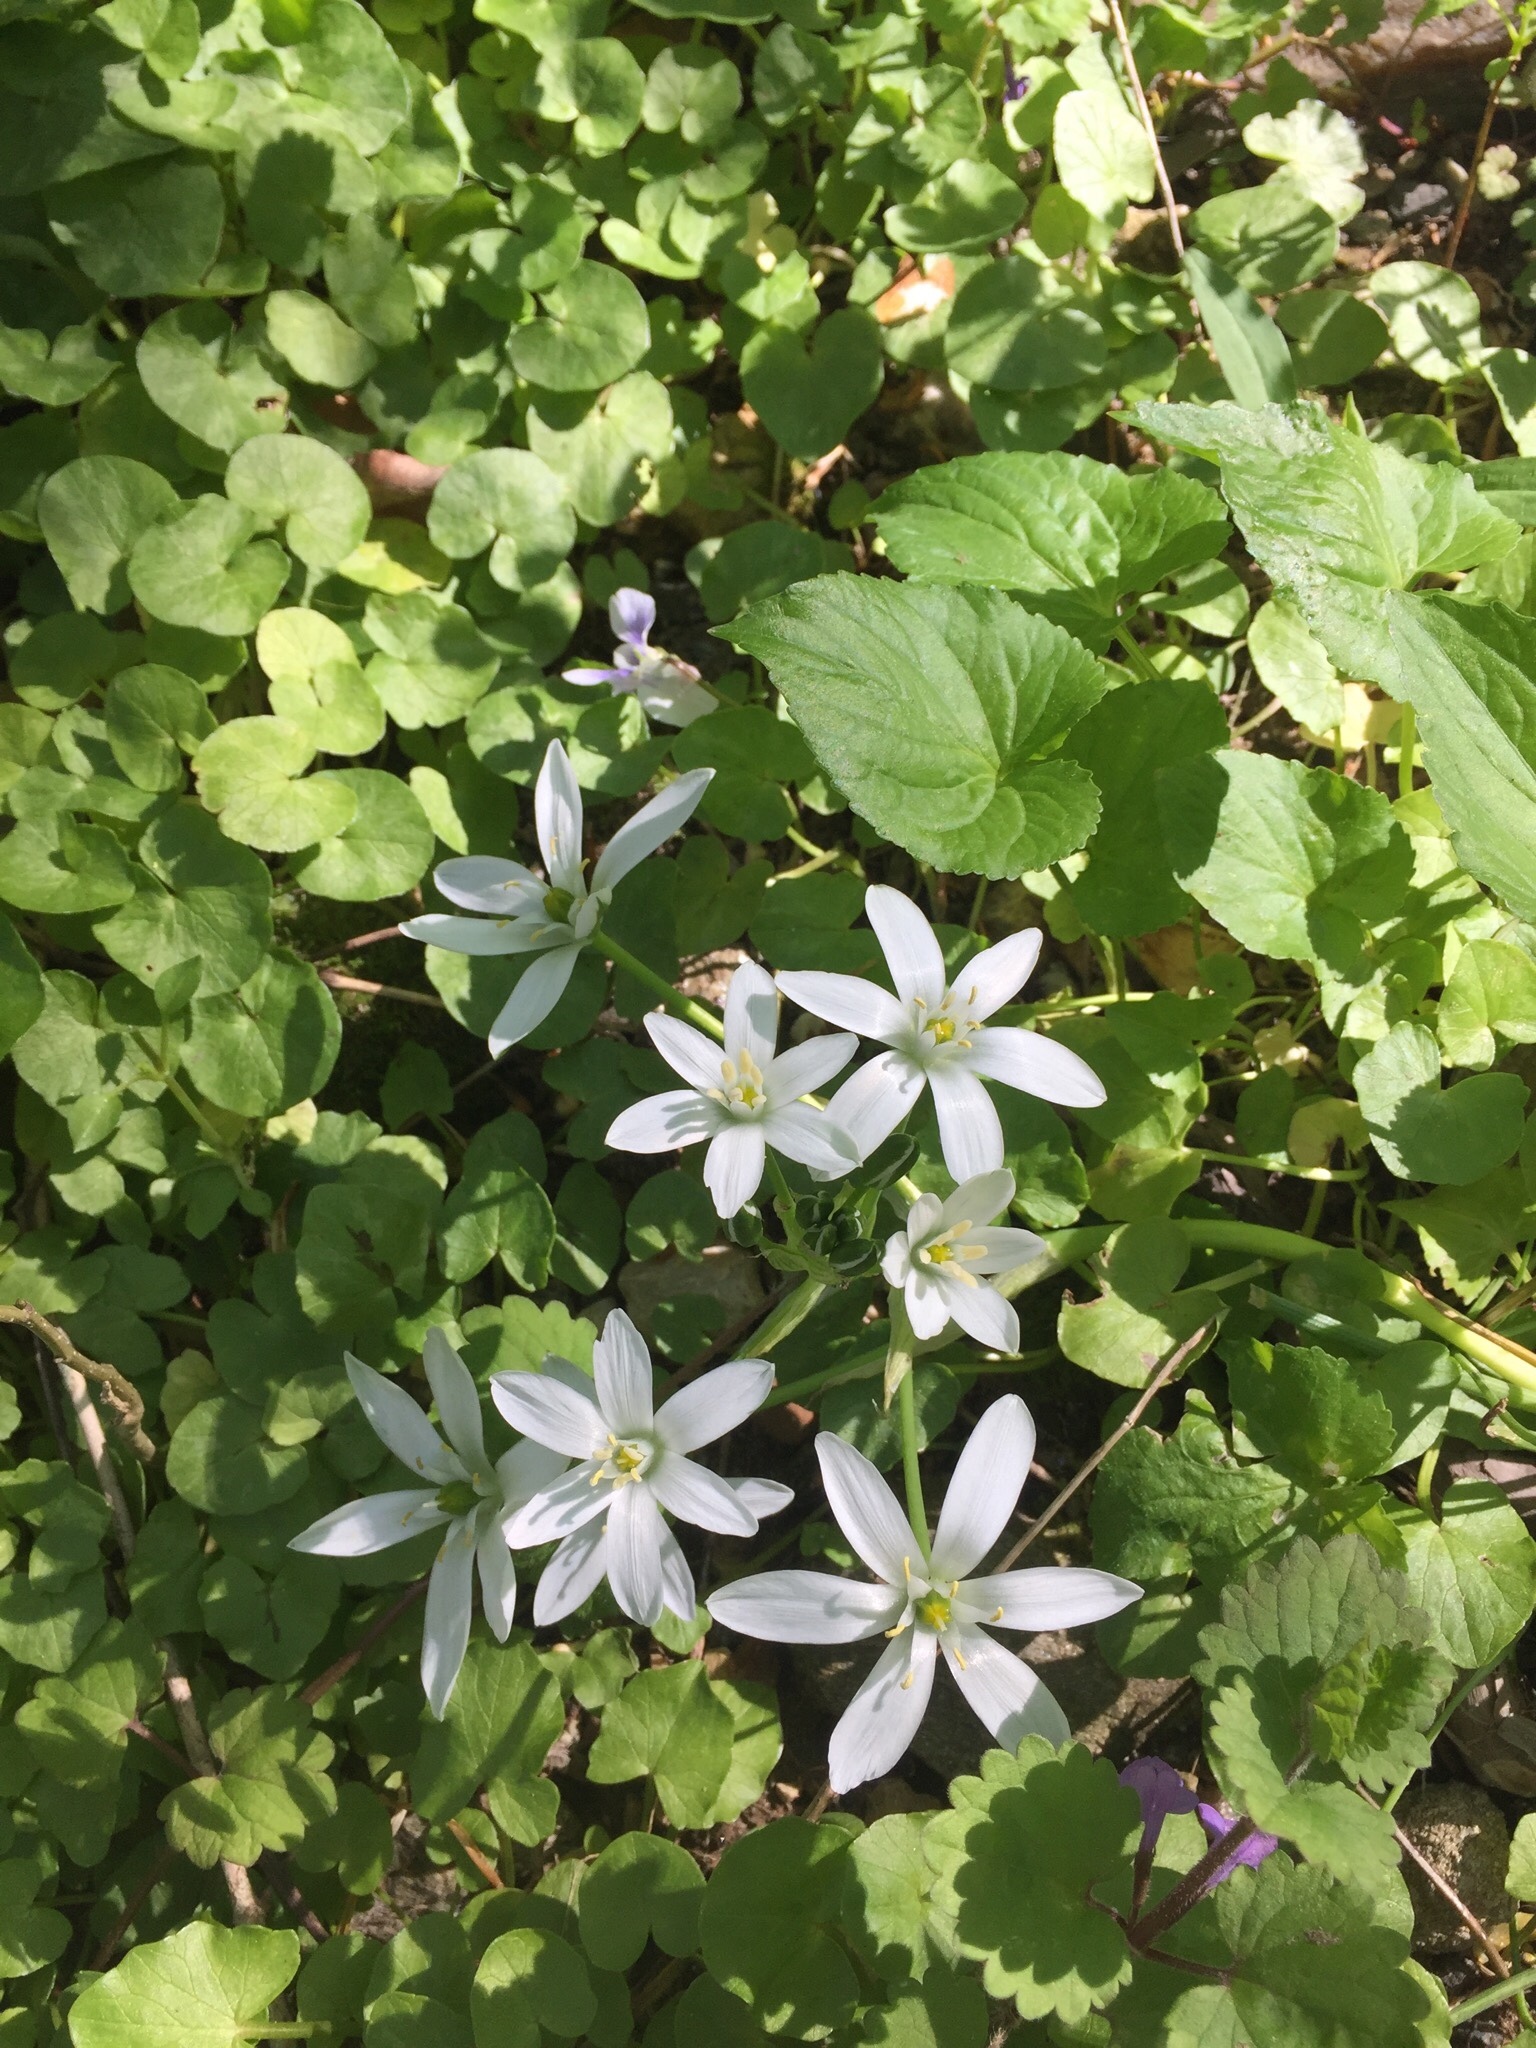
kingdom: Plantae
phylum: Tracheophyta
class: Liliopsida
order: Asparagales
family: Asparagaceae
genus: Ornithogalum
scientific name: Ornithogalum umbellatum
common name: Garden star-of-bethlehem
